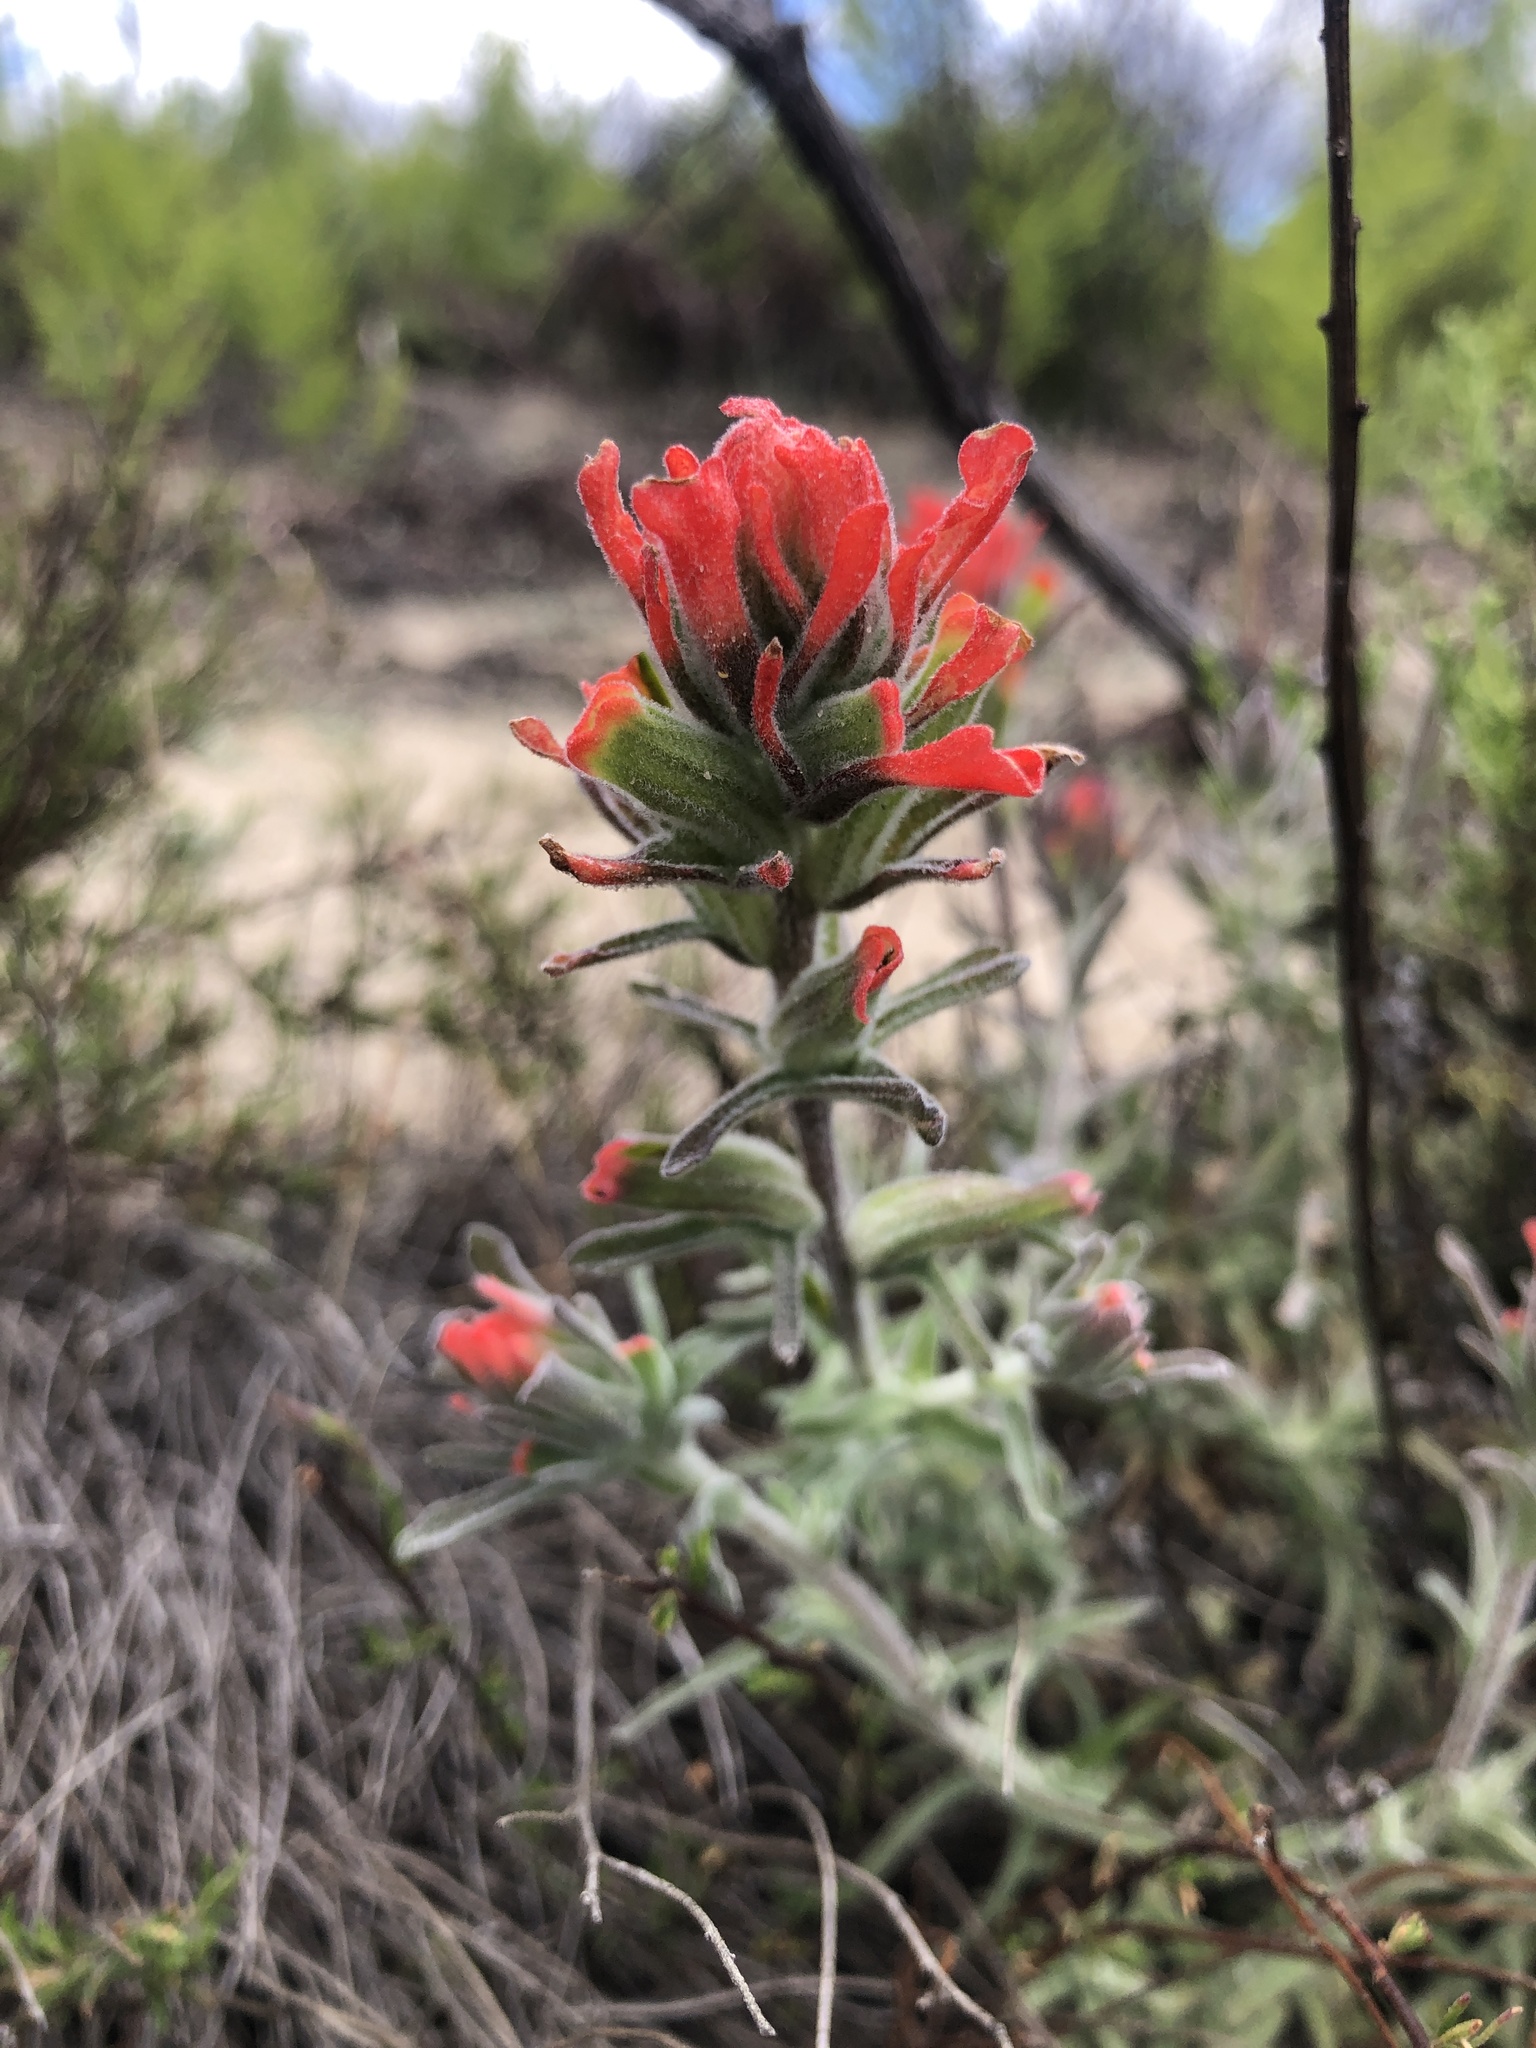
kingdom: Plantae
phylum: Tracheophyta
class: Magnoliopsida
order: Lamiales
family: Orobanchaceae
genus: Castilleja
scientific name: Castilleja foliolosa
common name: Woolly indian paintbrush
